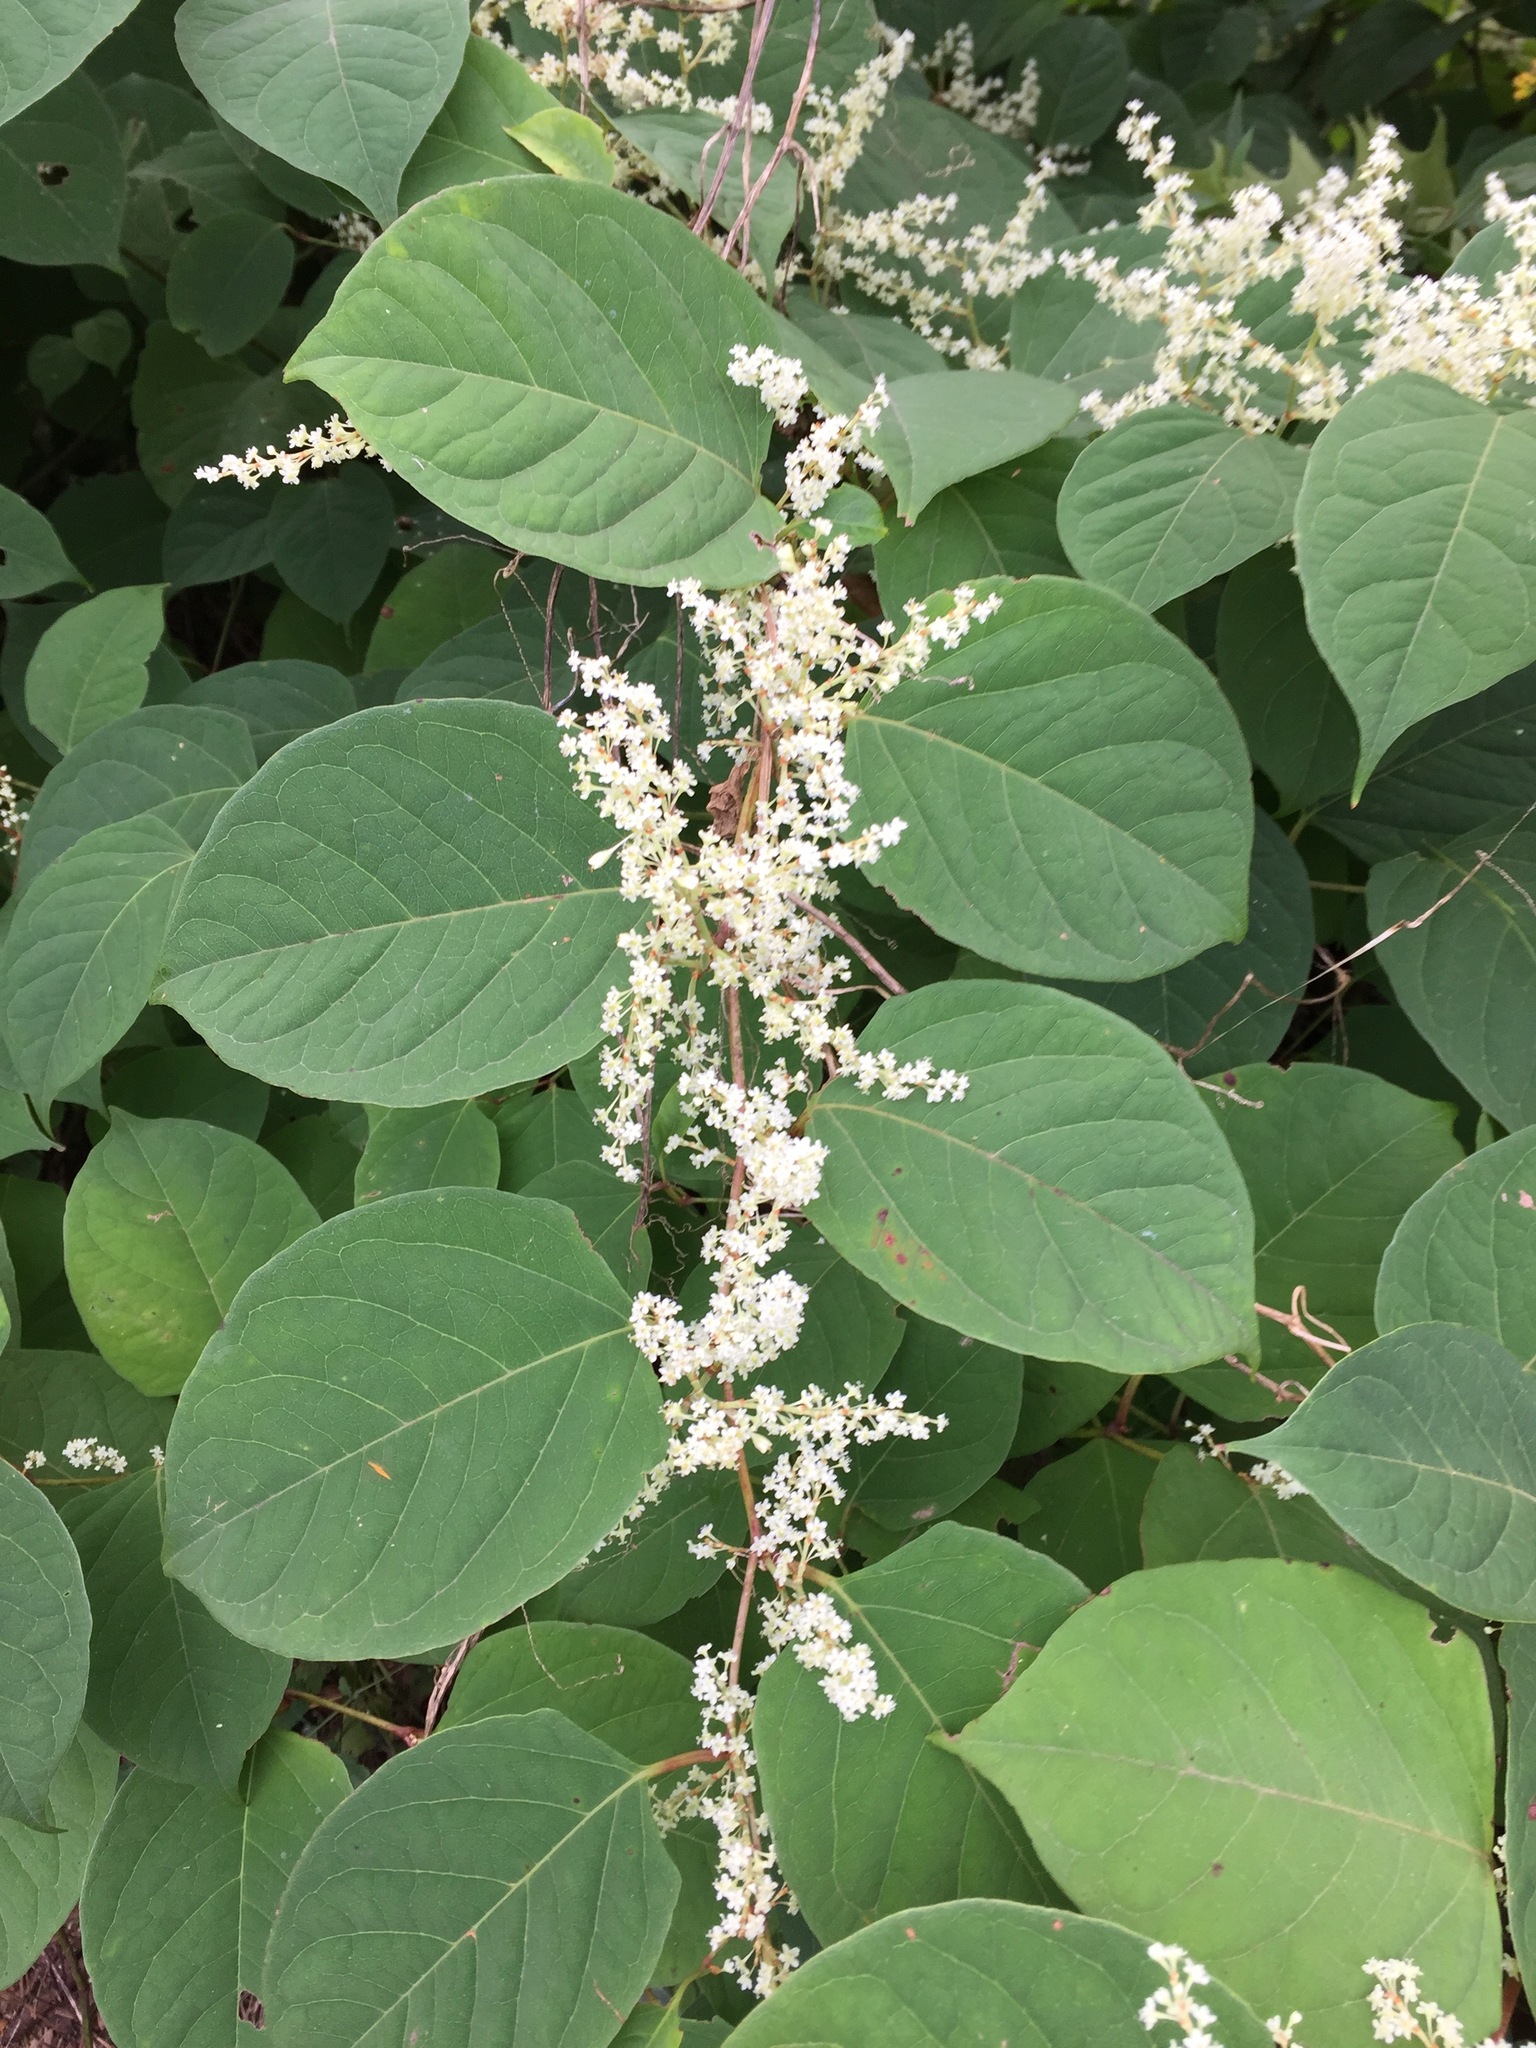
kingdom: Plantae
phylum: Tracheophyta
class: Magnoliopsida
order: Caryophyllales
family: Polygonaceae
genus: Reynoutria
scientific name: Reynoutria japonica
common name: Japanese knotweed
